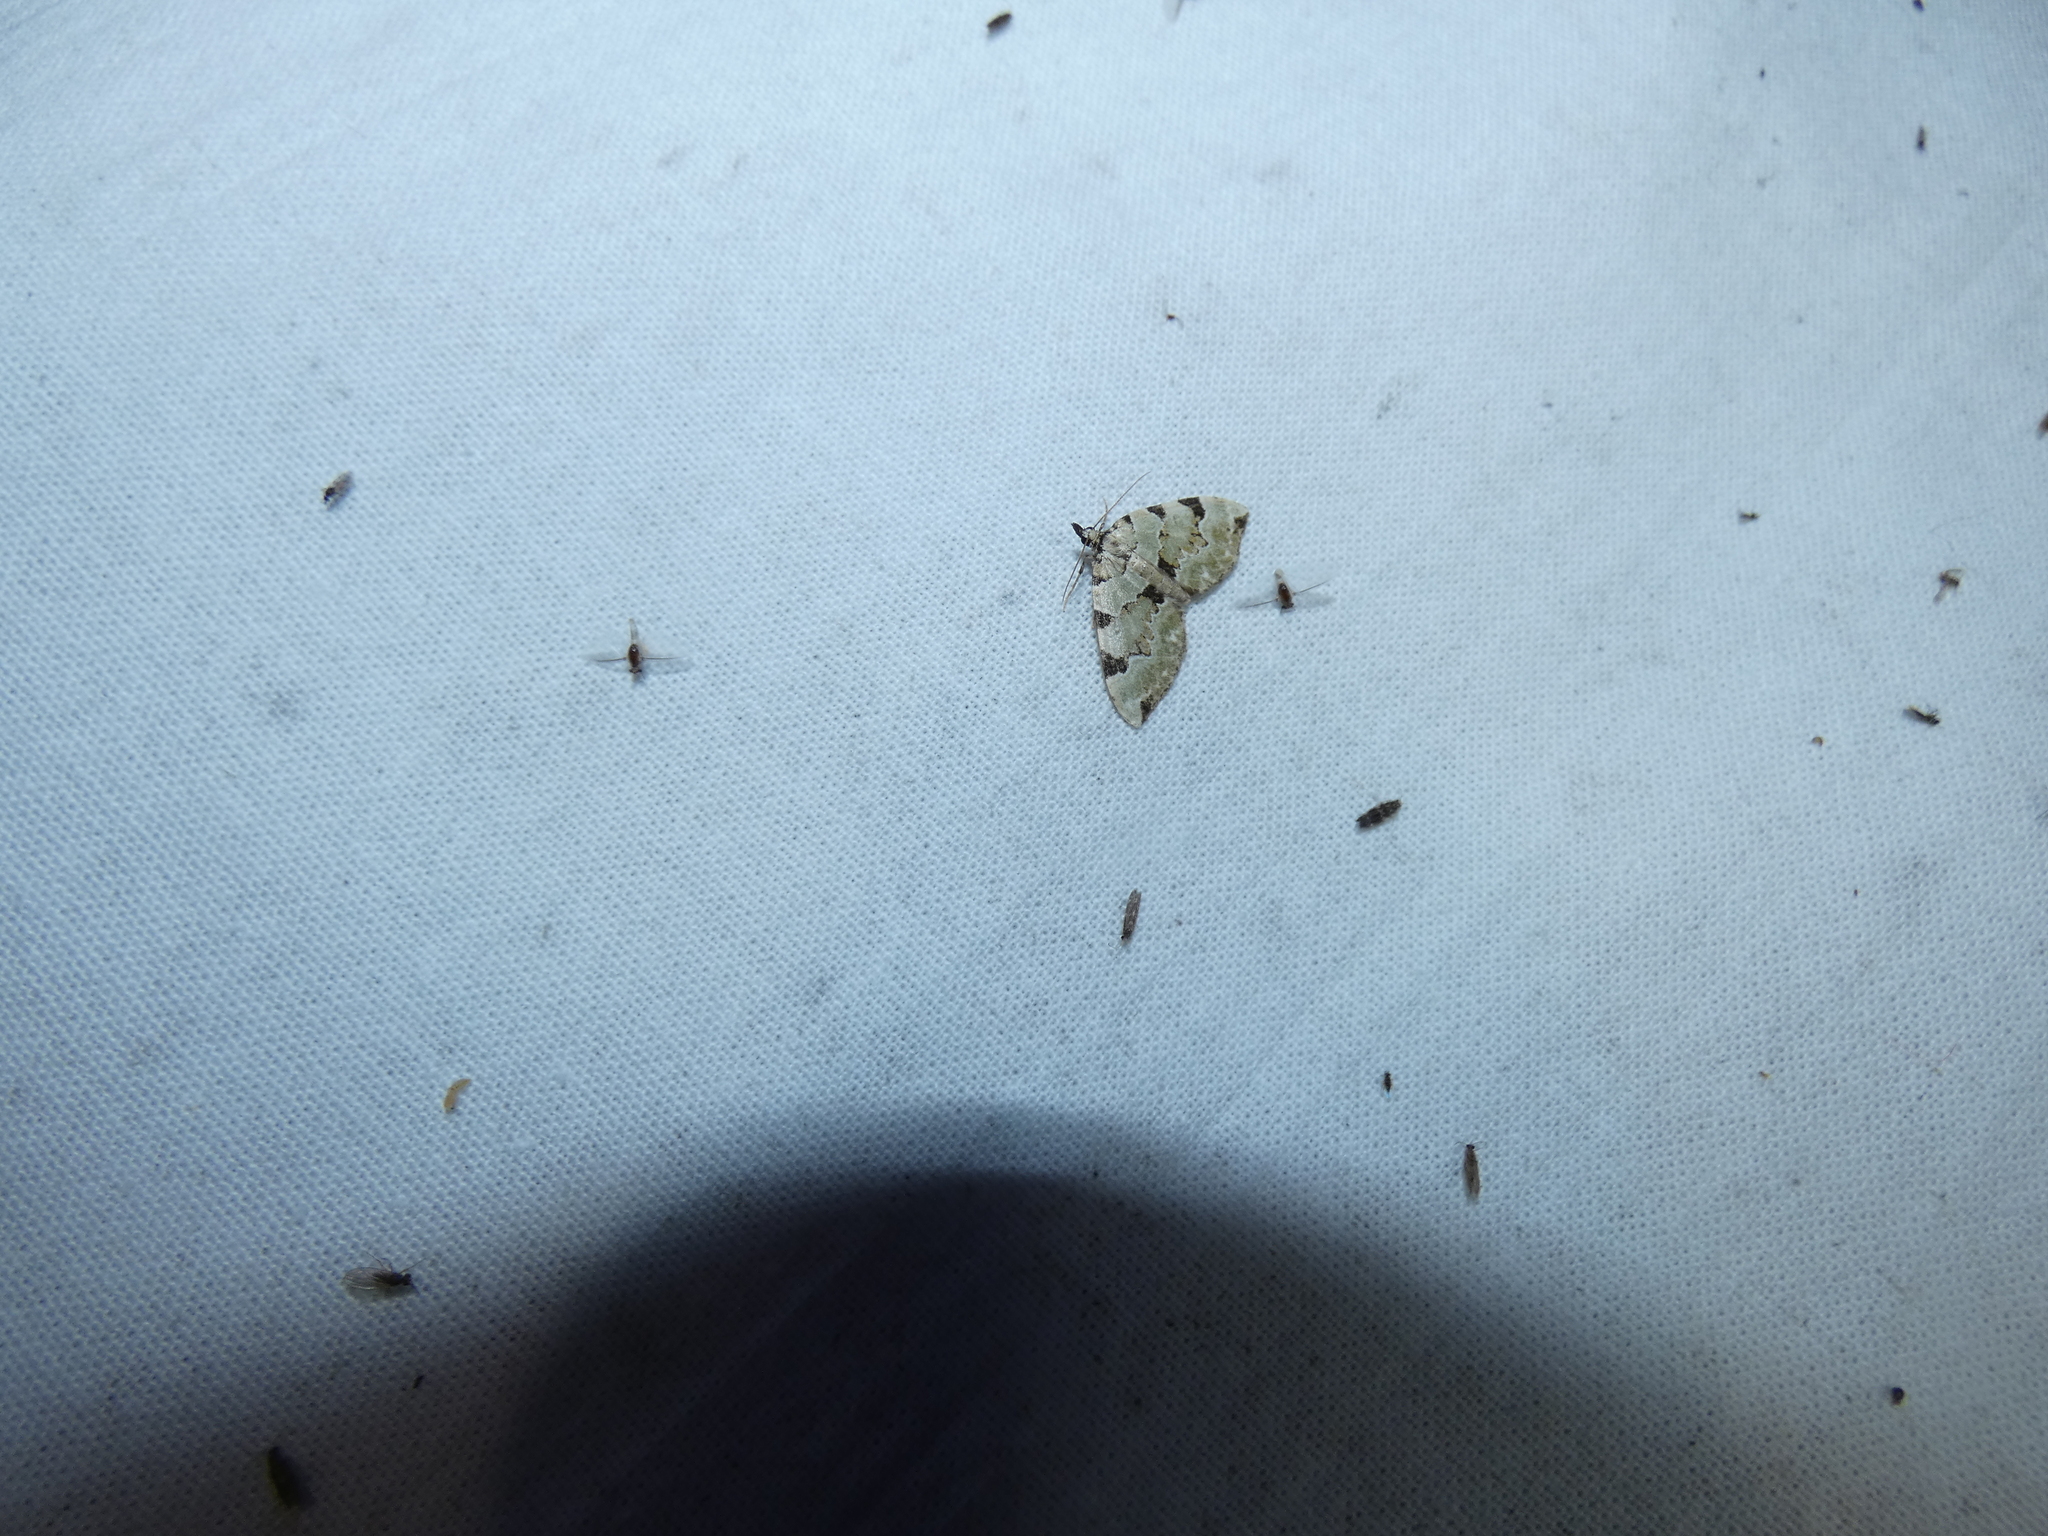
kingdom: Animalia
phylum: Arthropoda
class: Insecta
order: Lepidoptera
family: Geometridae
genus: Colostygia
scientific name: Colostygia pectinataria
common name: Green carpet
